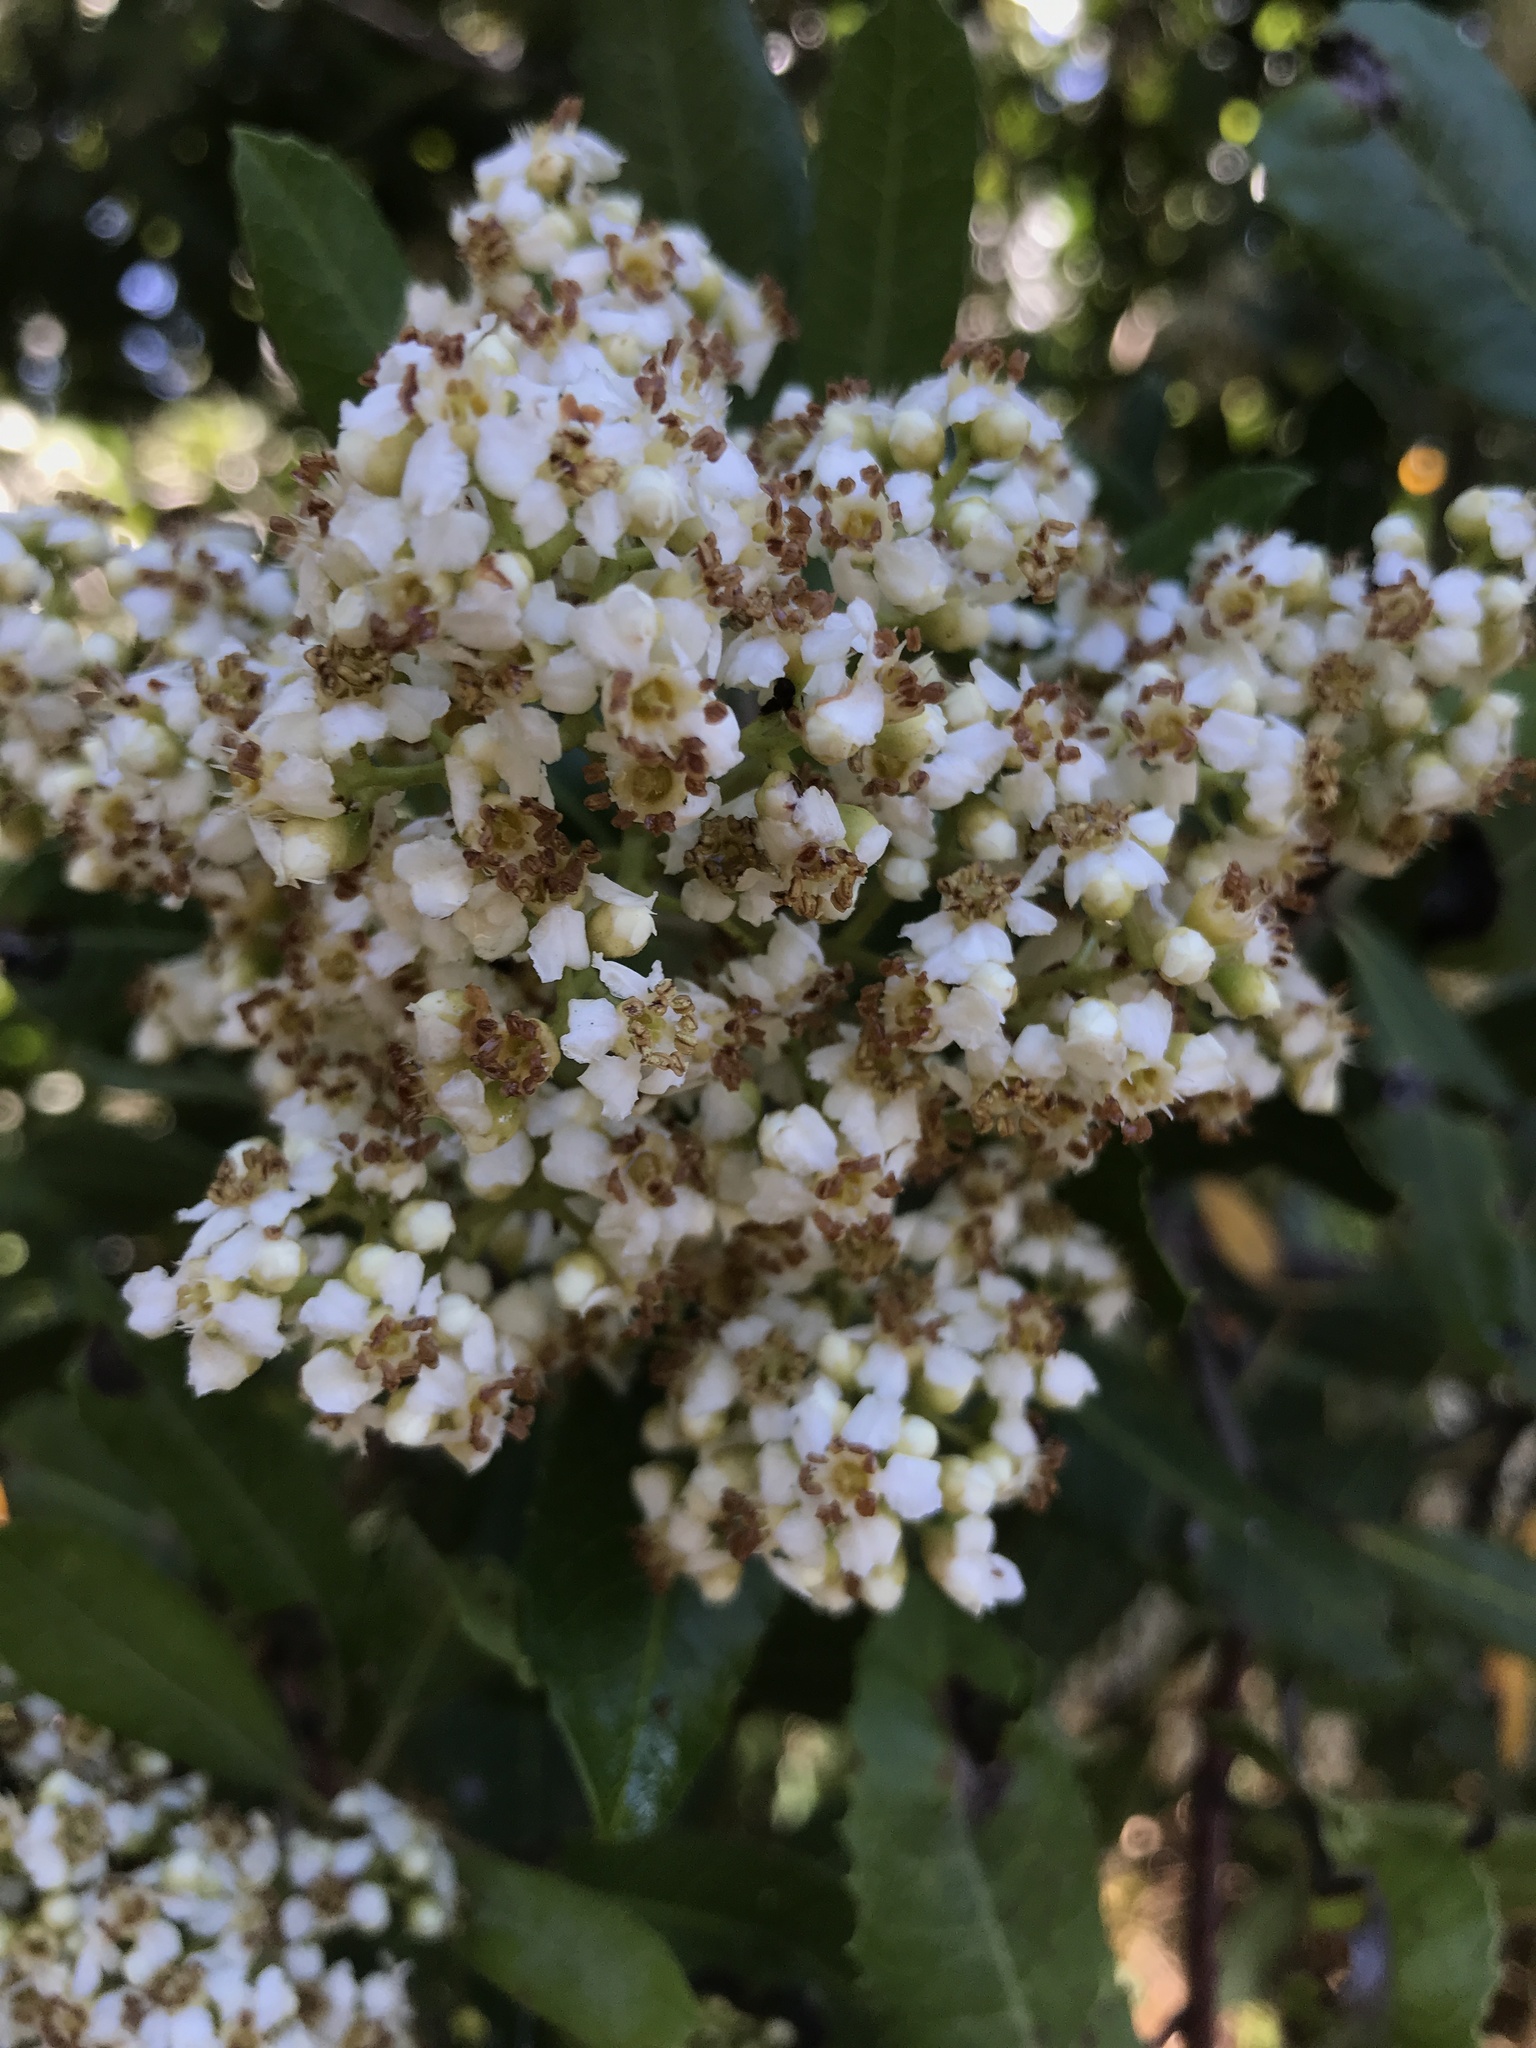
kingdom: Plantae
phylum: Tracheophyta
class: Magnoliopsida
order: Rosales
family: Rosaceae
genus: Heteromeles
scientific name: Heteromeles arbutifolia
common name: California-holly
